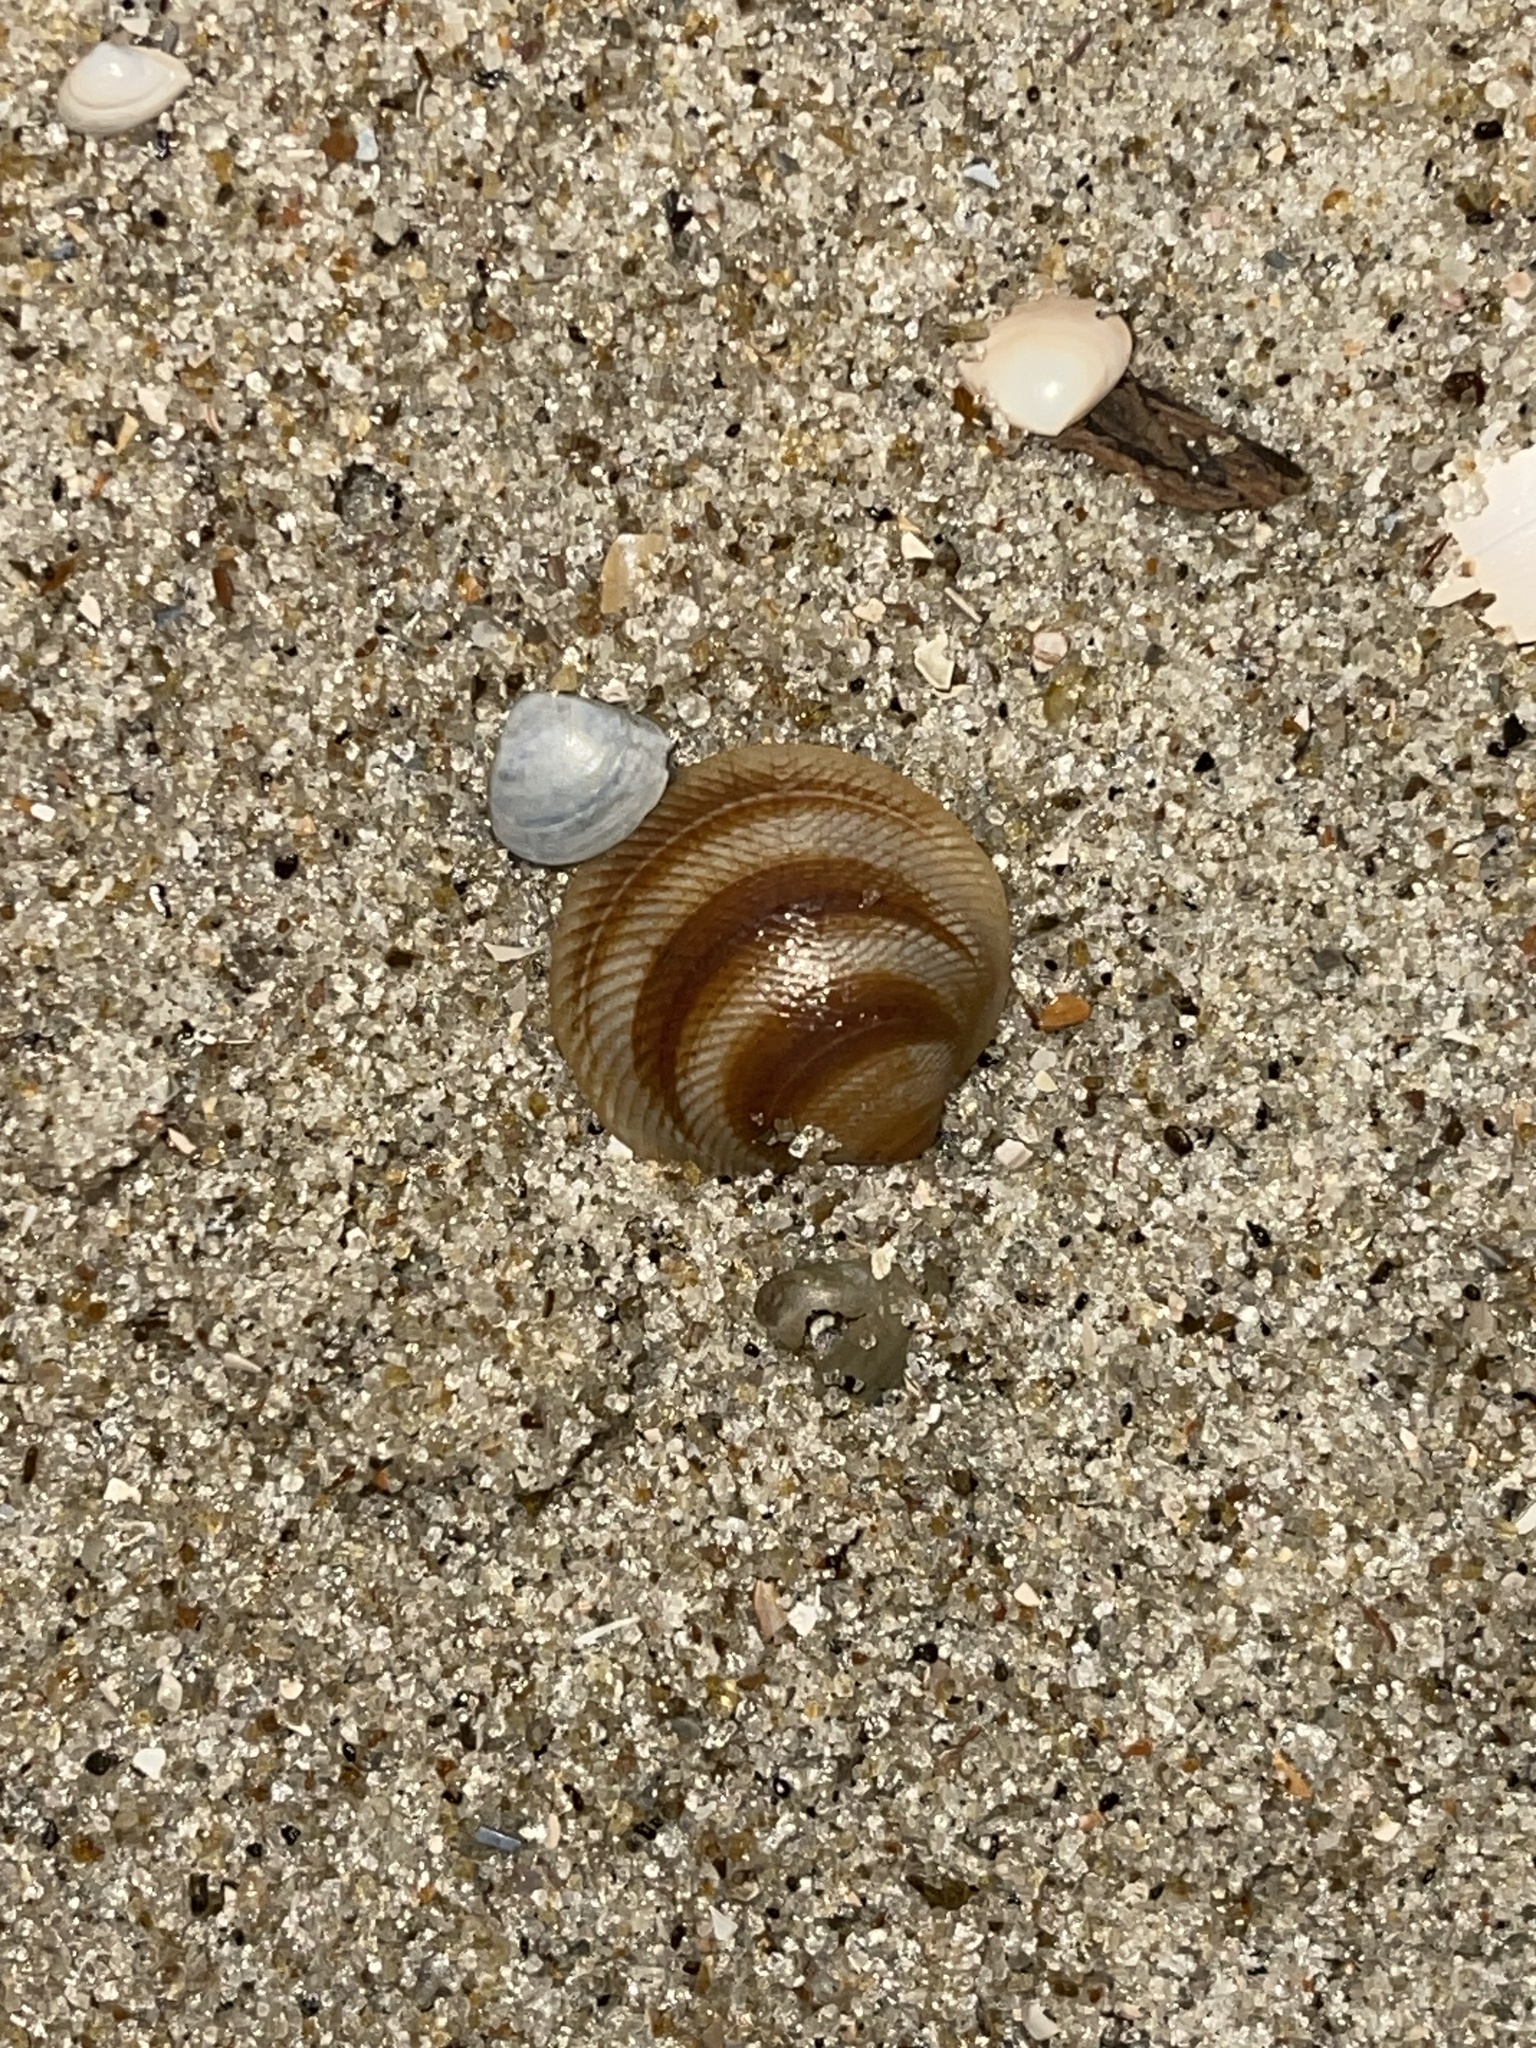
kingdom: Animalia
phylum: Mollusca
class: Bivalvia
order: Lucinida
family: Lucinidae
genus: Divalinga
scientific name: Divalinga quadrisulcata
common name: Cross-hatched lucine
